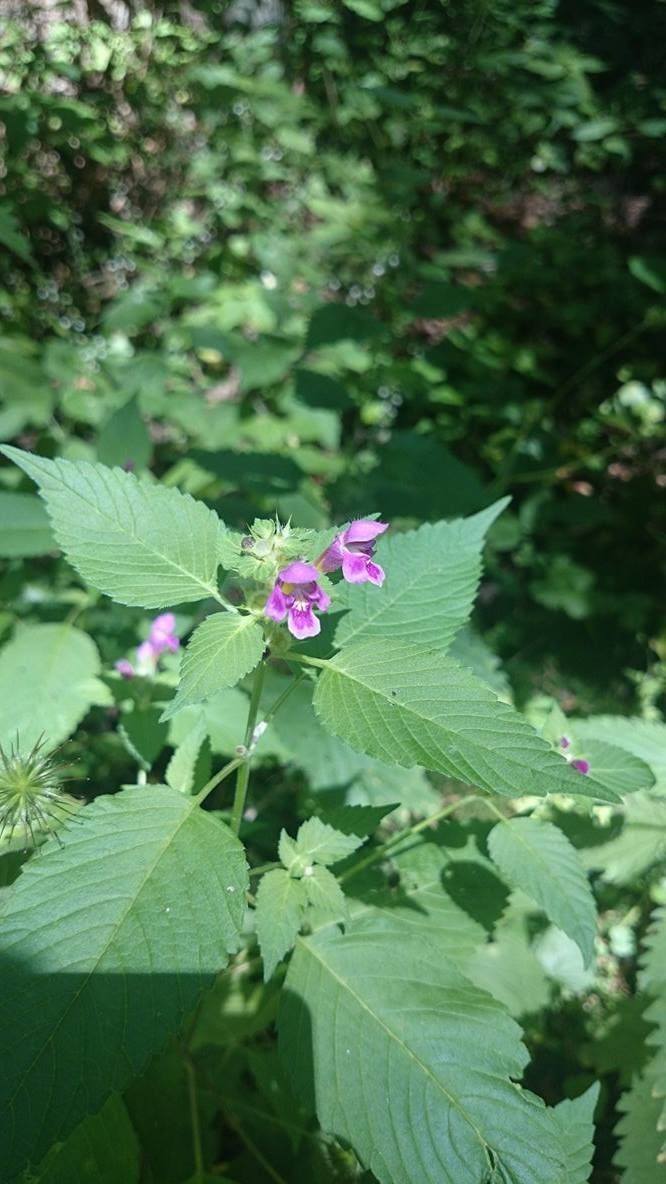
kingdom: Plantae
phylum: Tracheophyta
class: Magnoliopsida
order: Lamiales
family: Lamiaceae
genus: Galeopsis
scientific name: Galeopsis tetrahit
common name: Common hemp-nettle
